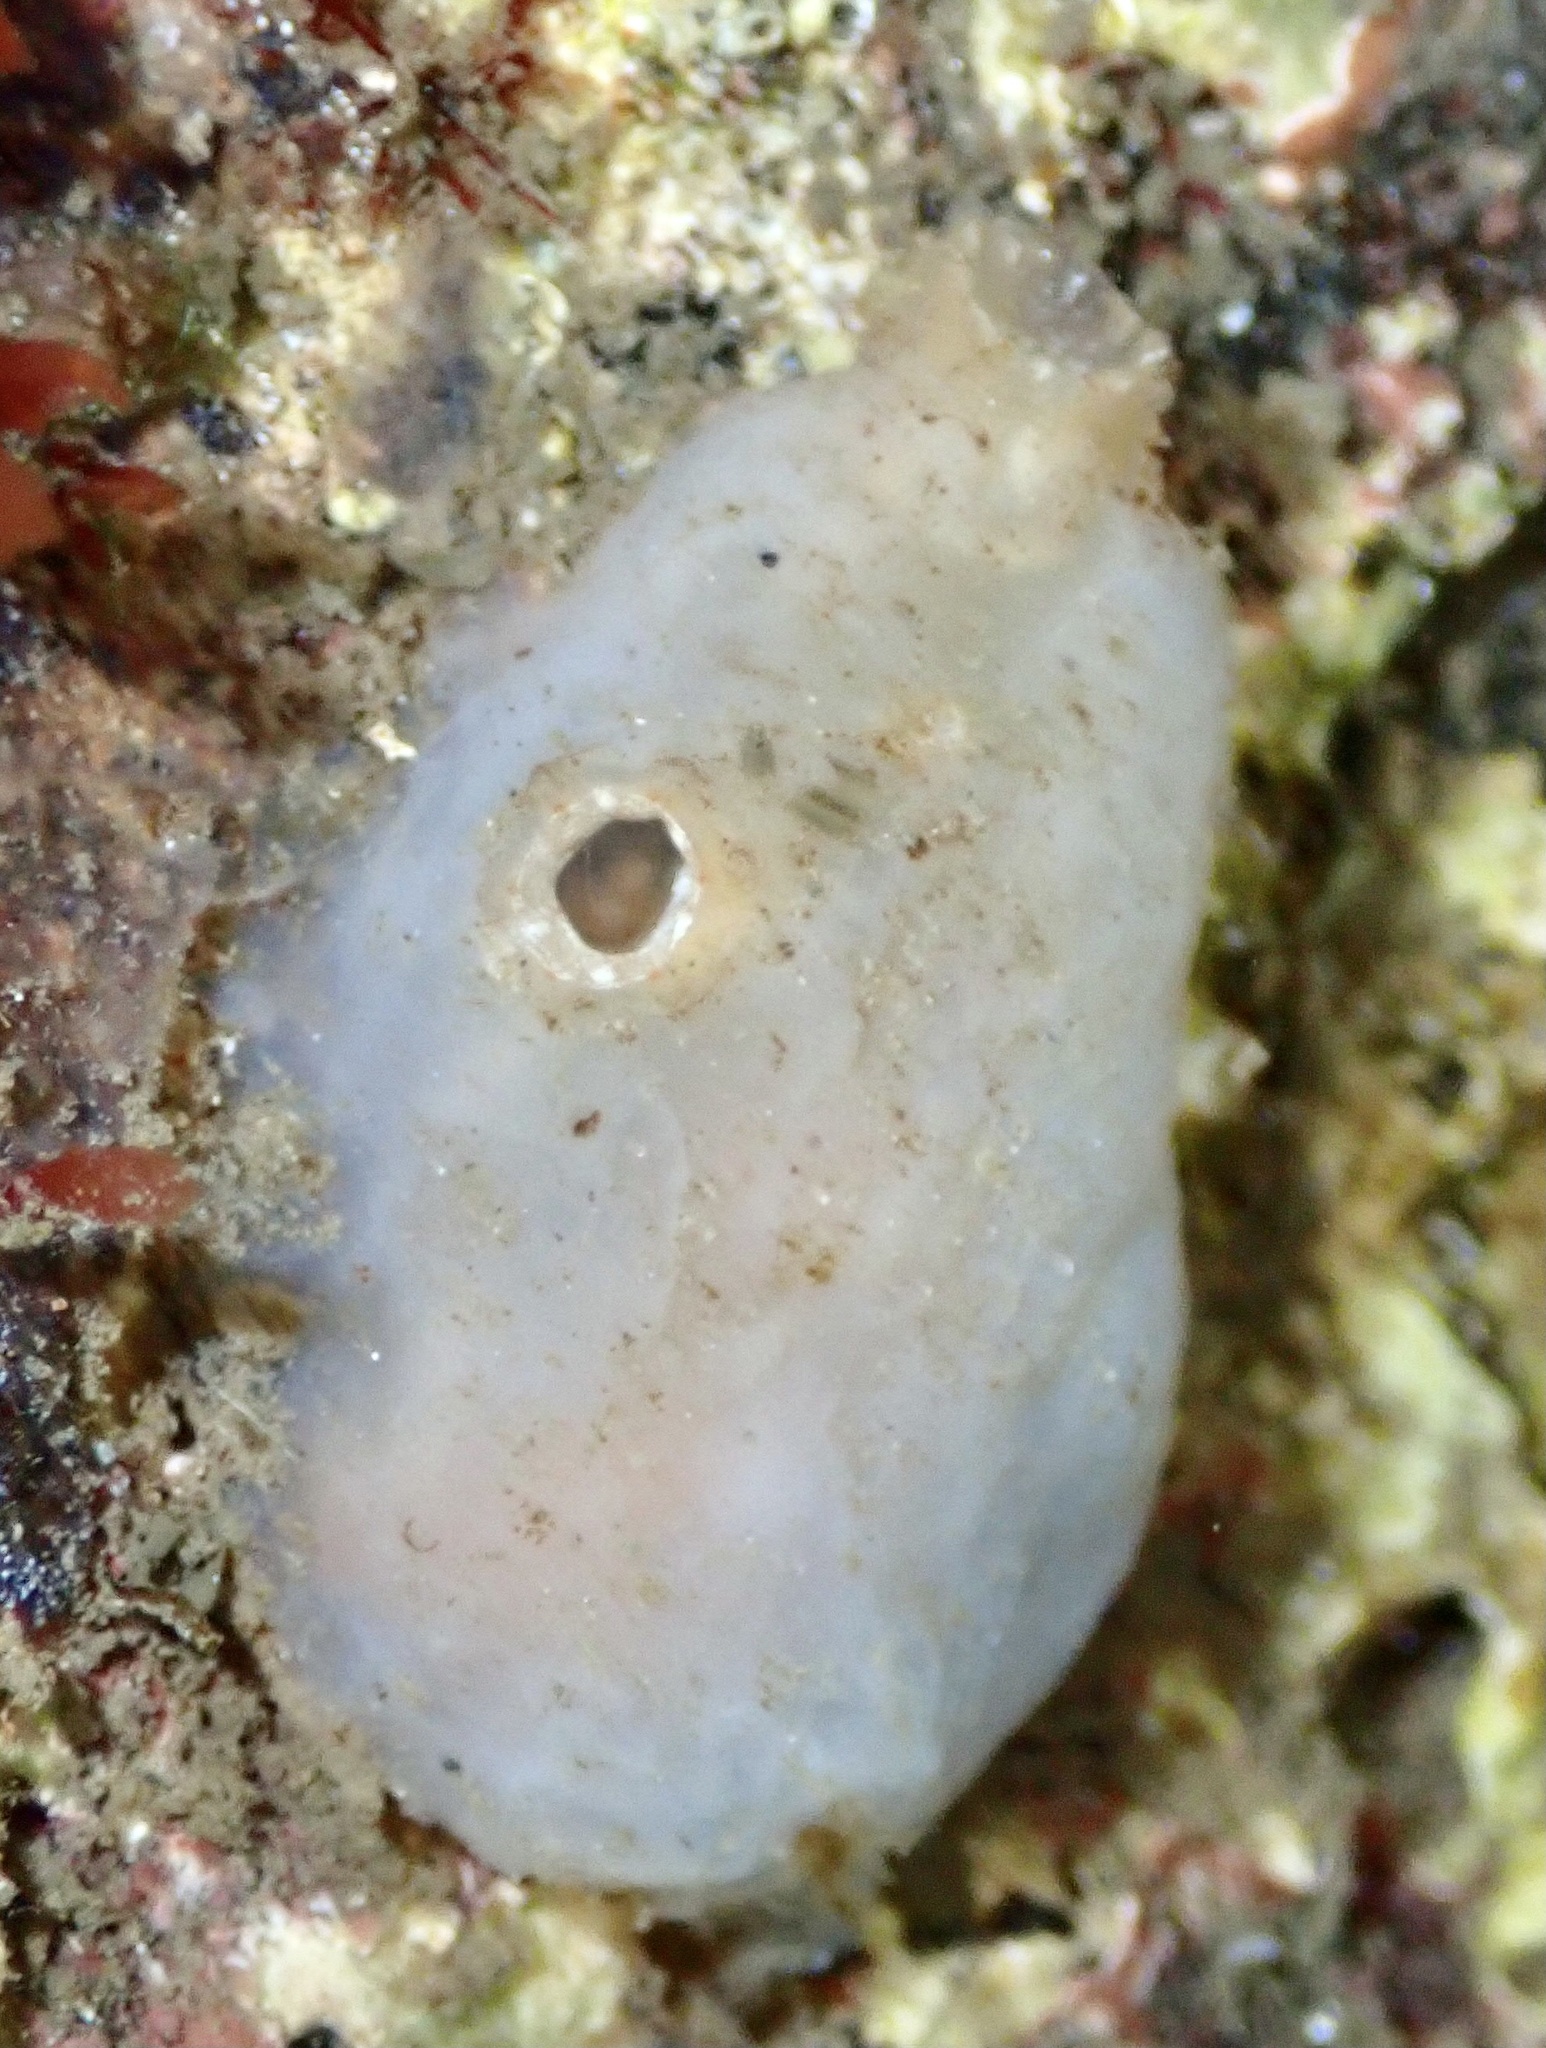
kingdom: Animalia
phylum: Chordata
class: Ascidiacea
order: Phlebobranchia
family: Ascidiidae
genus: Ascidiella
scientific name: Ascidiella aspersa
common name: Dirty sea-squirt
